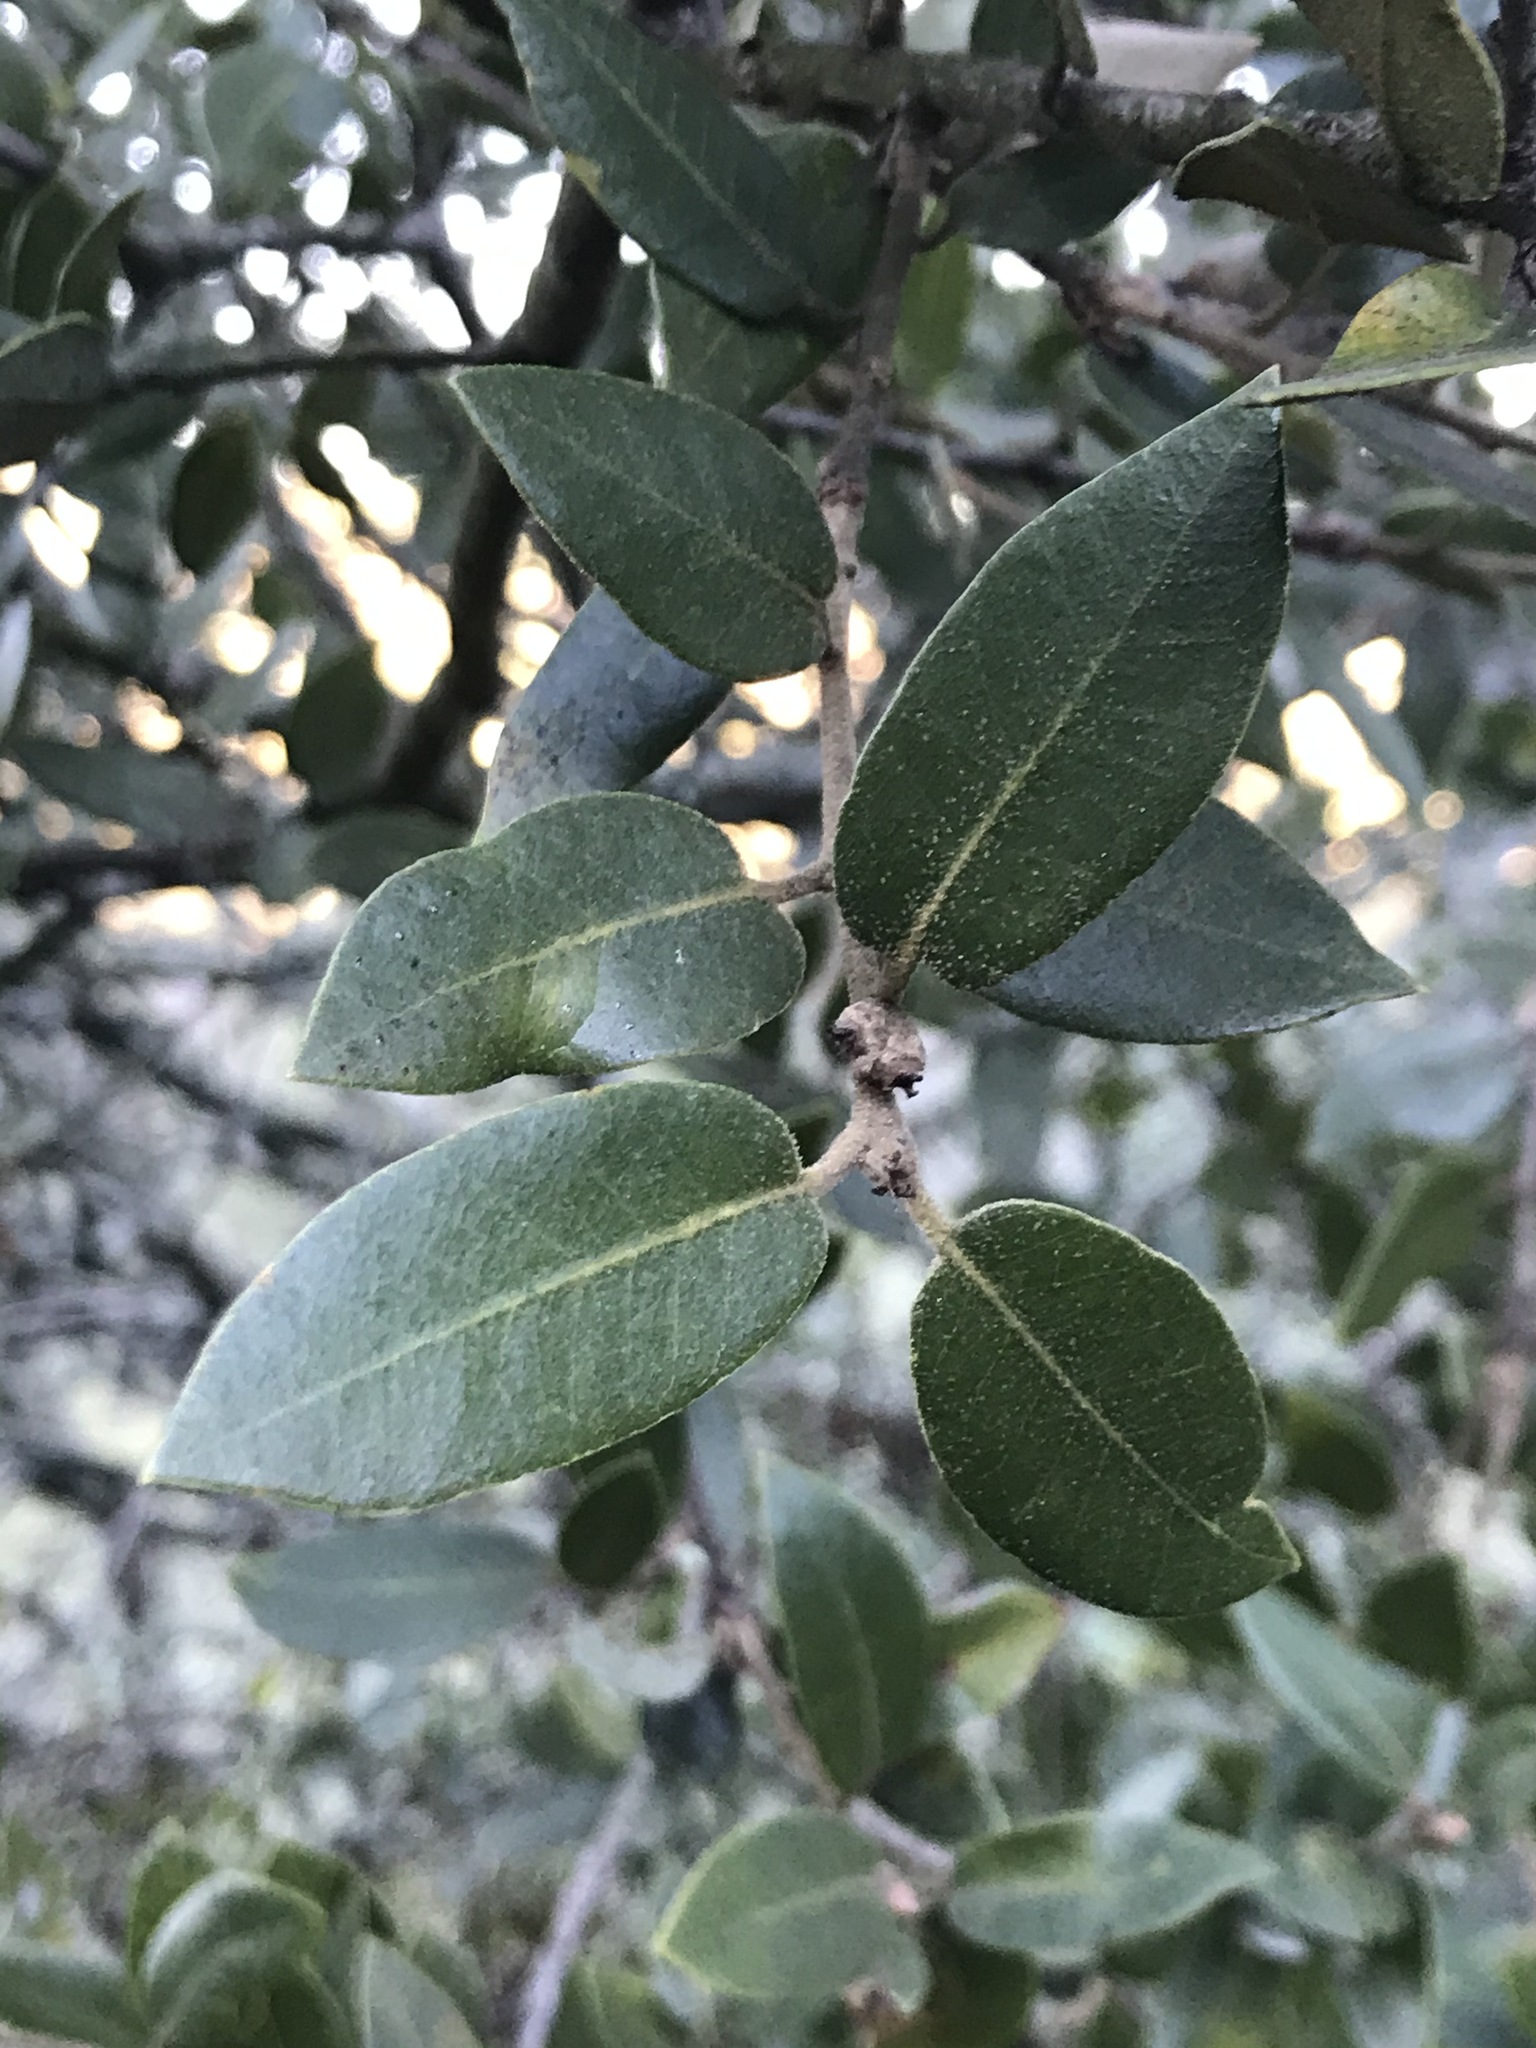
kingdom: Plantae
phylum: Tracheophyta
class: Magnoliopsida
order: Fagales
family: Fagaceae
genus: Quercus
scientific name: Quercus chrysolepis
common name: Canyon live oak
